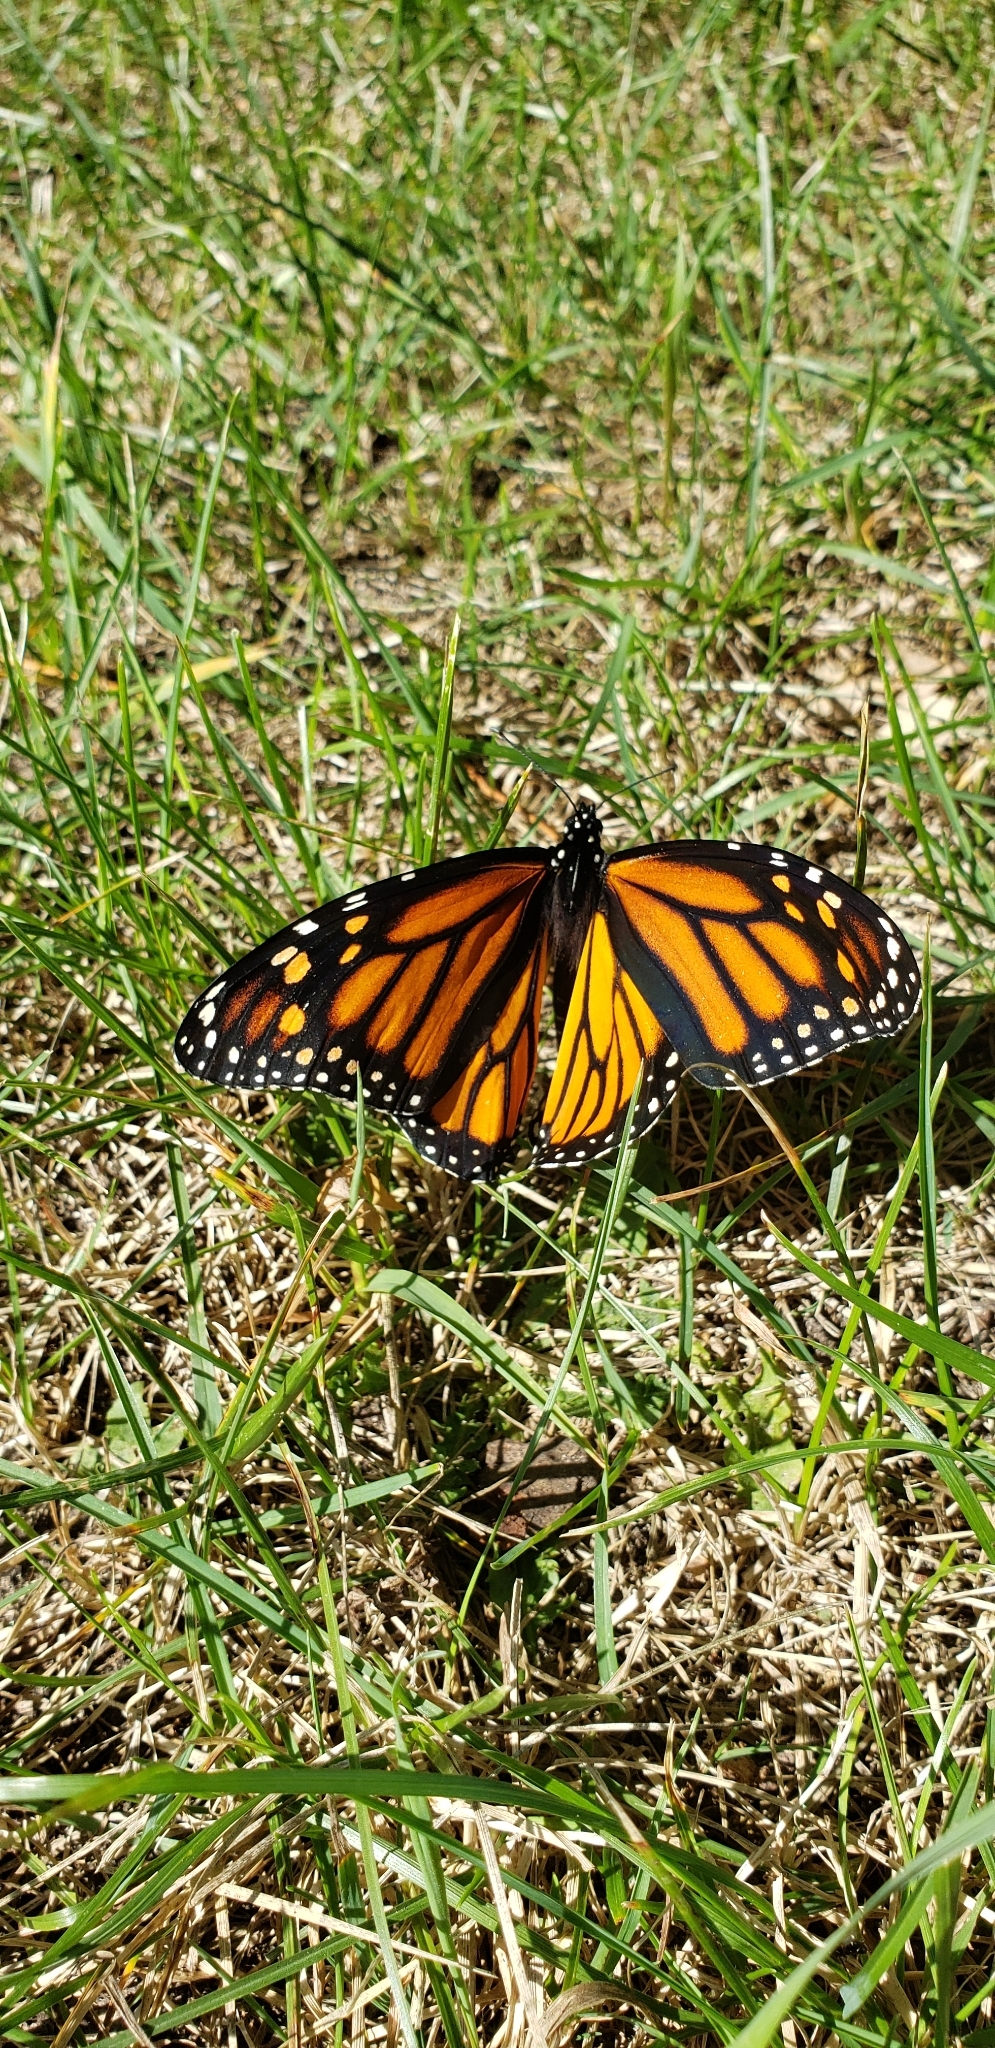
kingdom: Animalia
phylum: Arthropoda
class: Insecta
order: Lepidoptera
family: Nymphalidae
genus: Danaus
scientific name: Danaus plexippus
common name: Monarch
